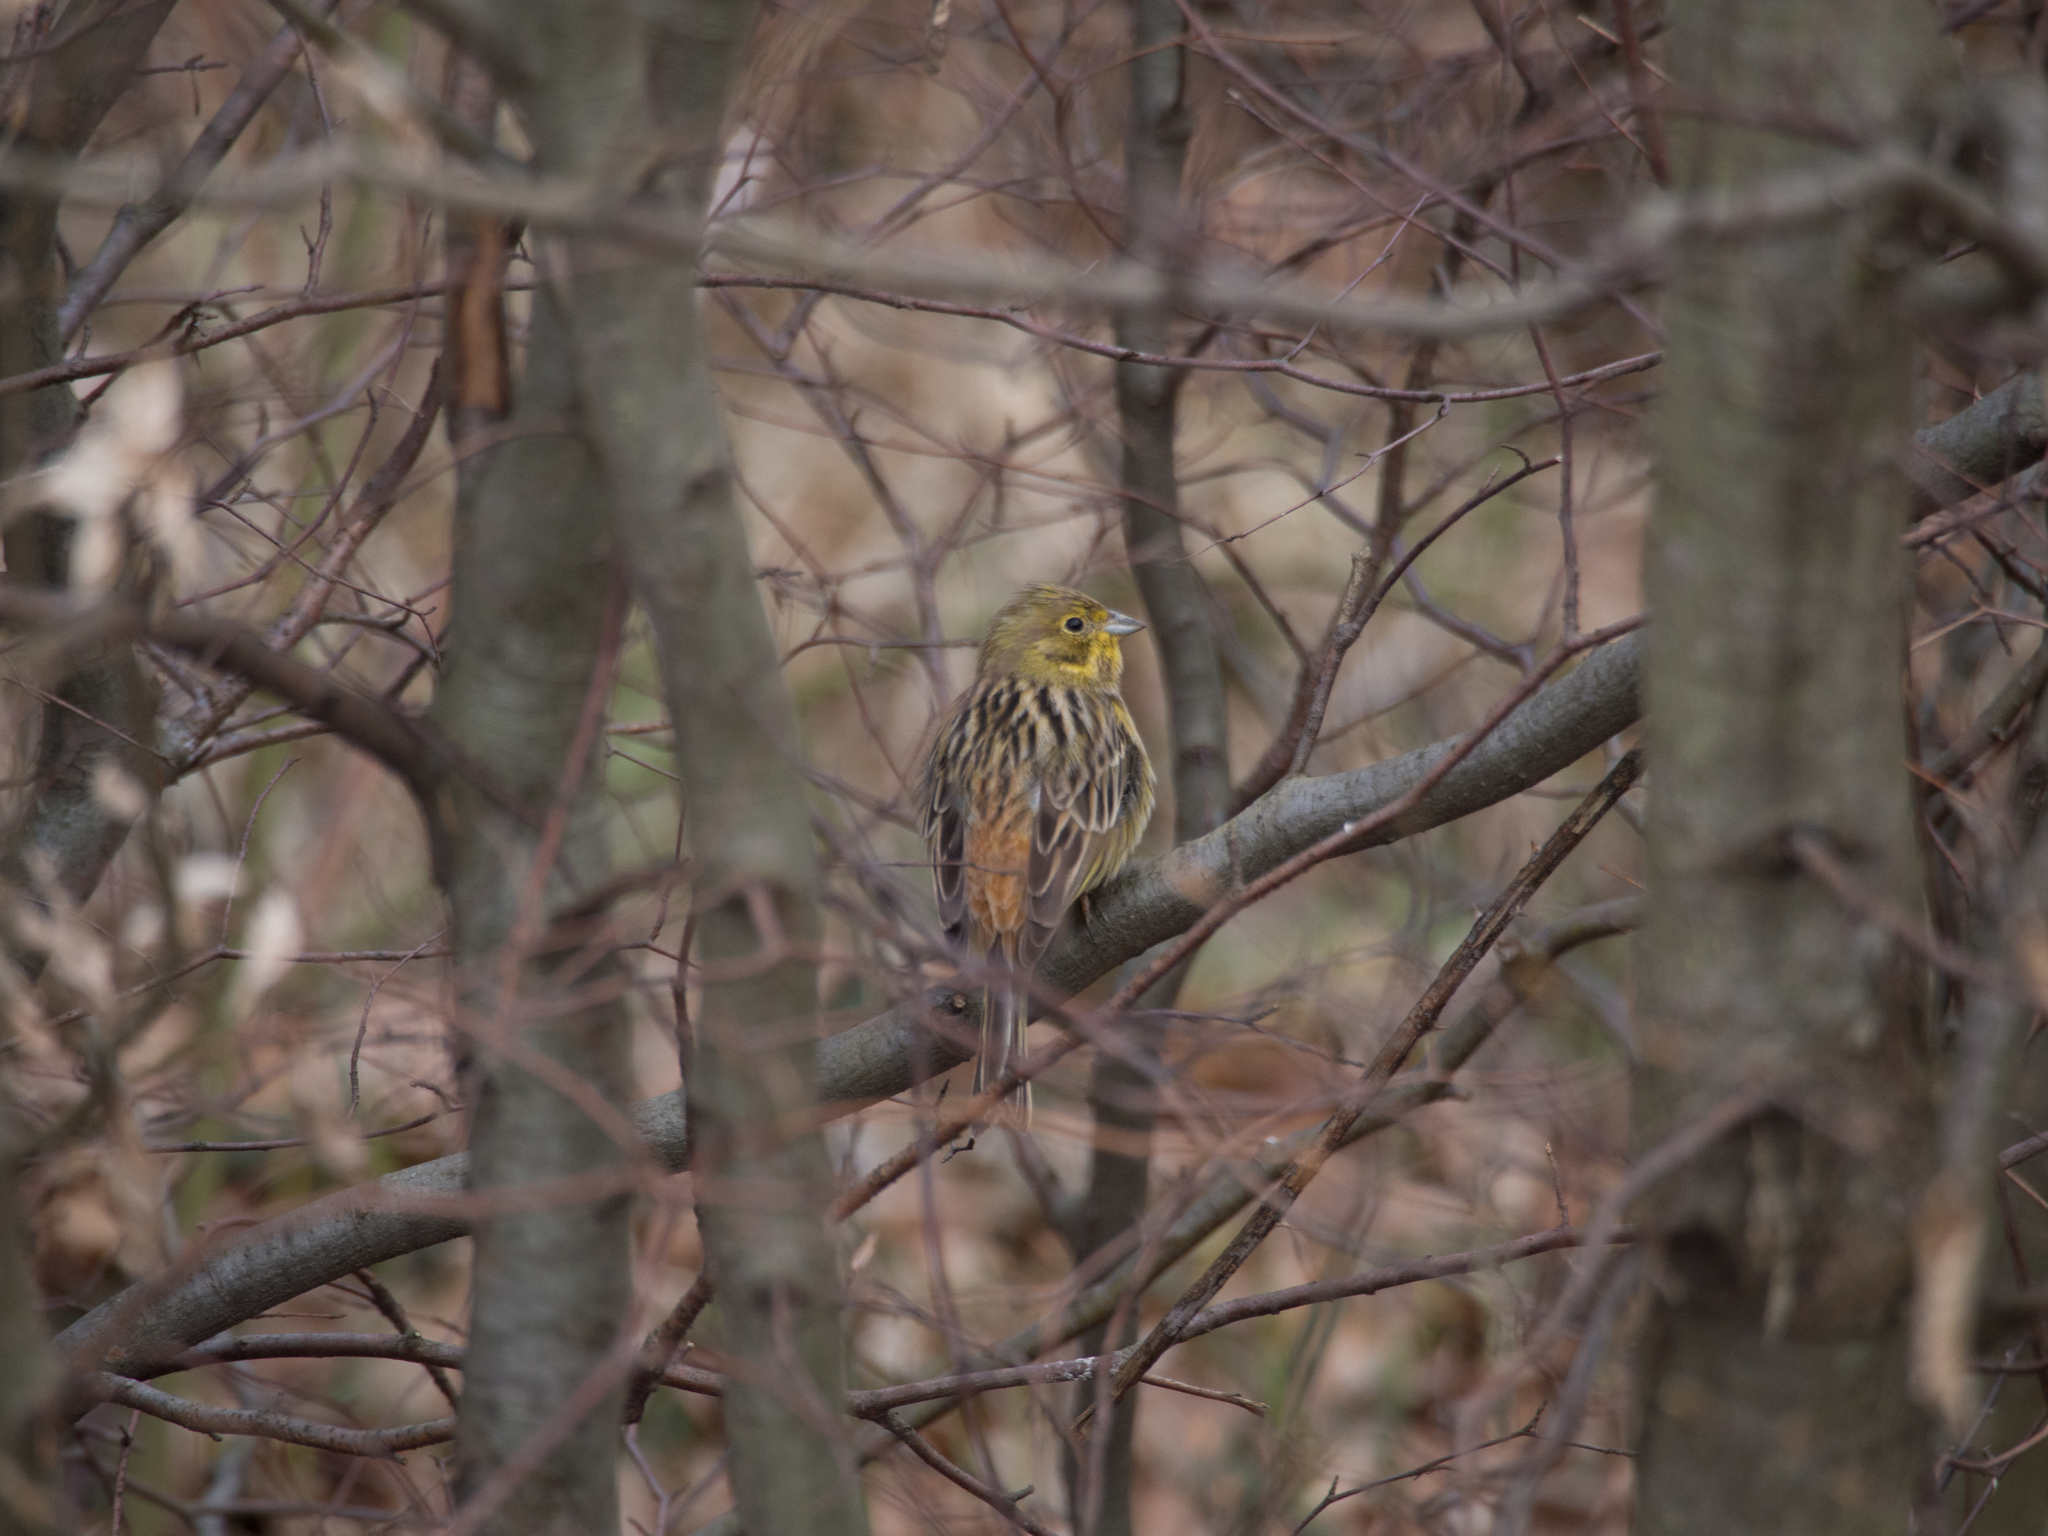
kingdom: Animalia
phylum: Chordata
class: Aves
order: Passeriformes
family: Emberizidae
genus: Emberiza
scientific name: Emberiza citrinella
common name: Yellowhammer
